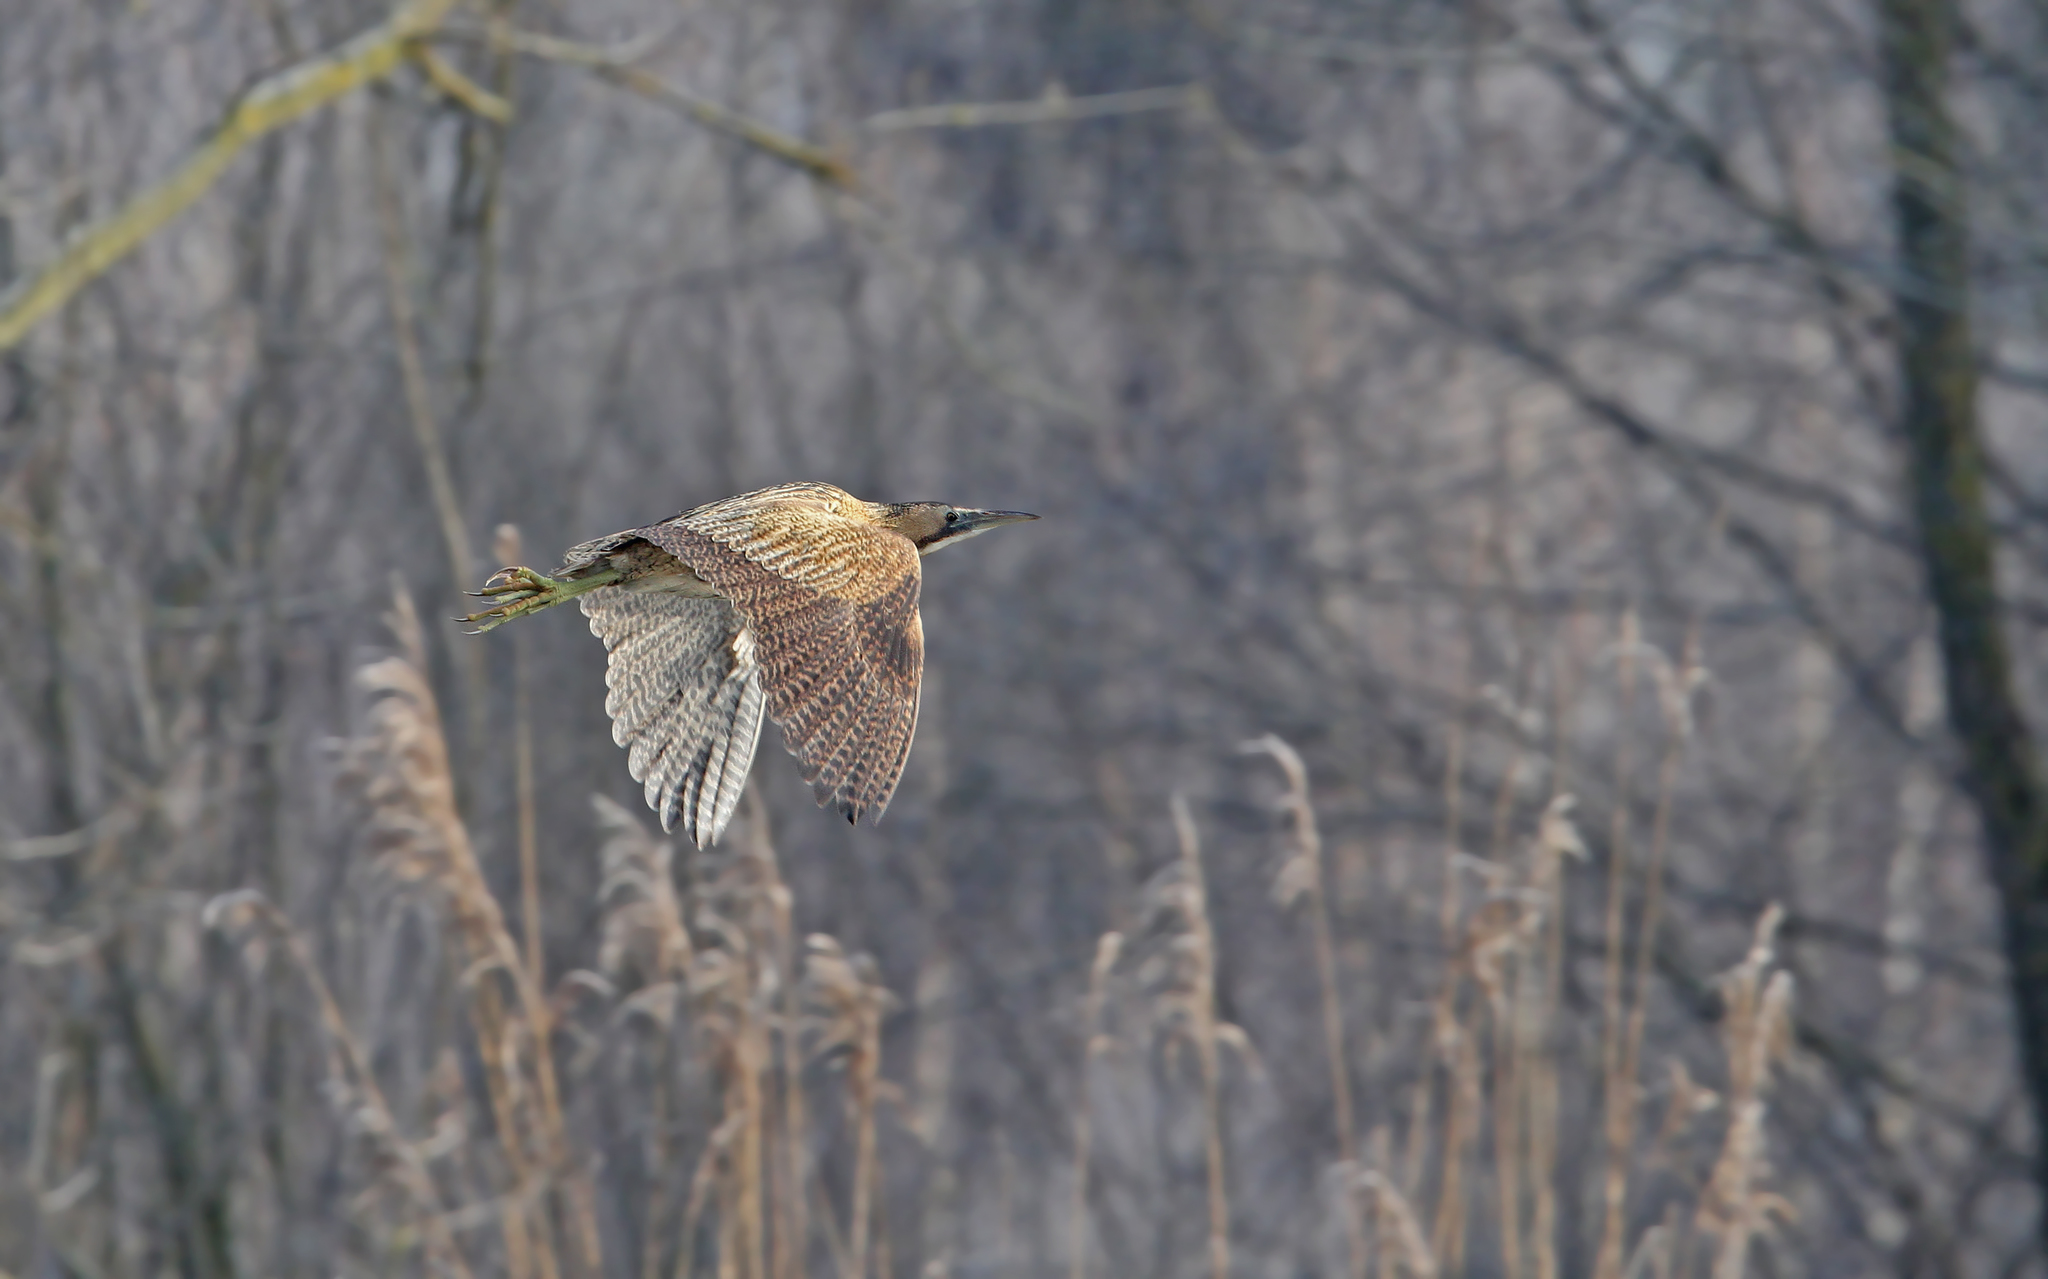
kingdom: Animalia
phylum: Chordata
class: Aves
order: Pelecaniformes
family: Ardeidae
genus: Botaurus
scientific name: Botaurus stellaris
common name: Eurasian bittern
